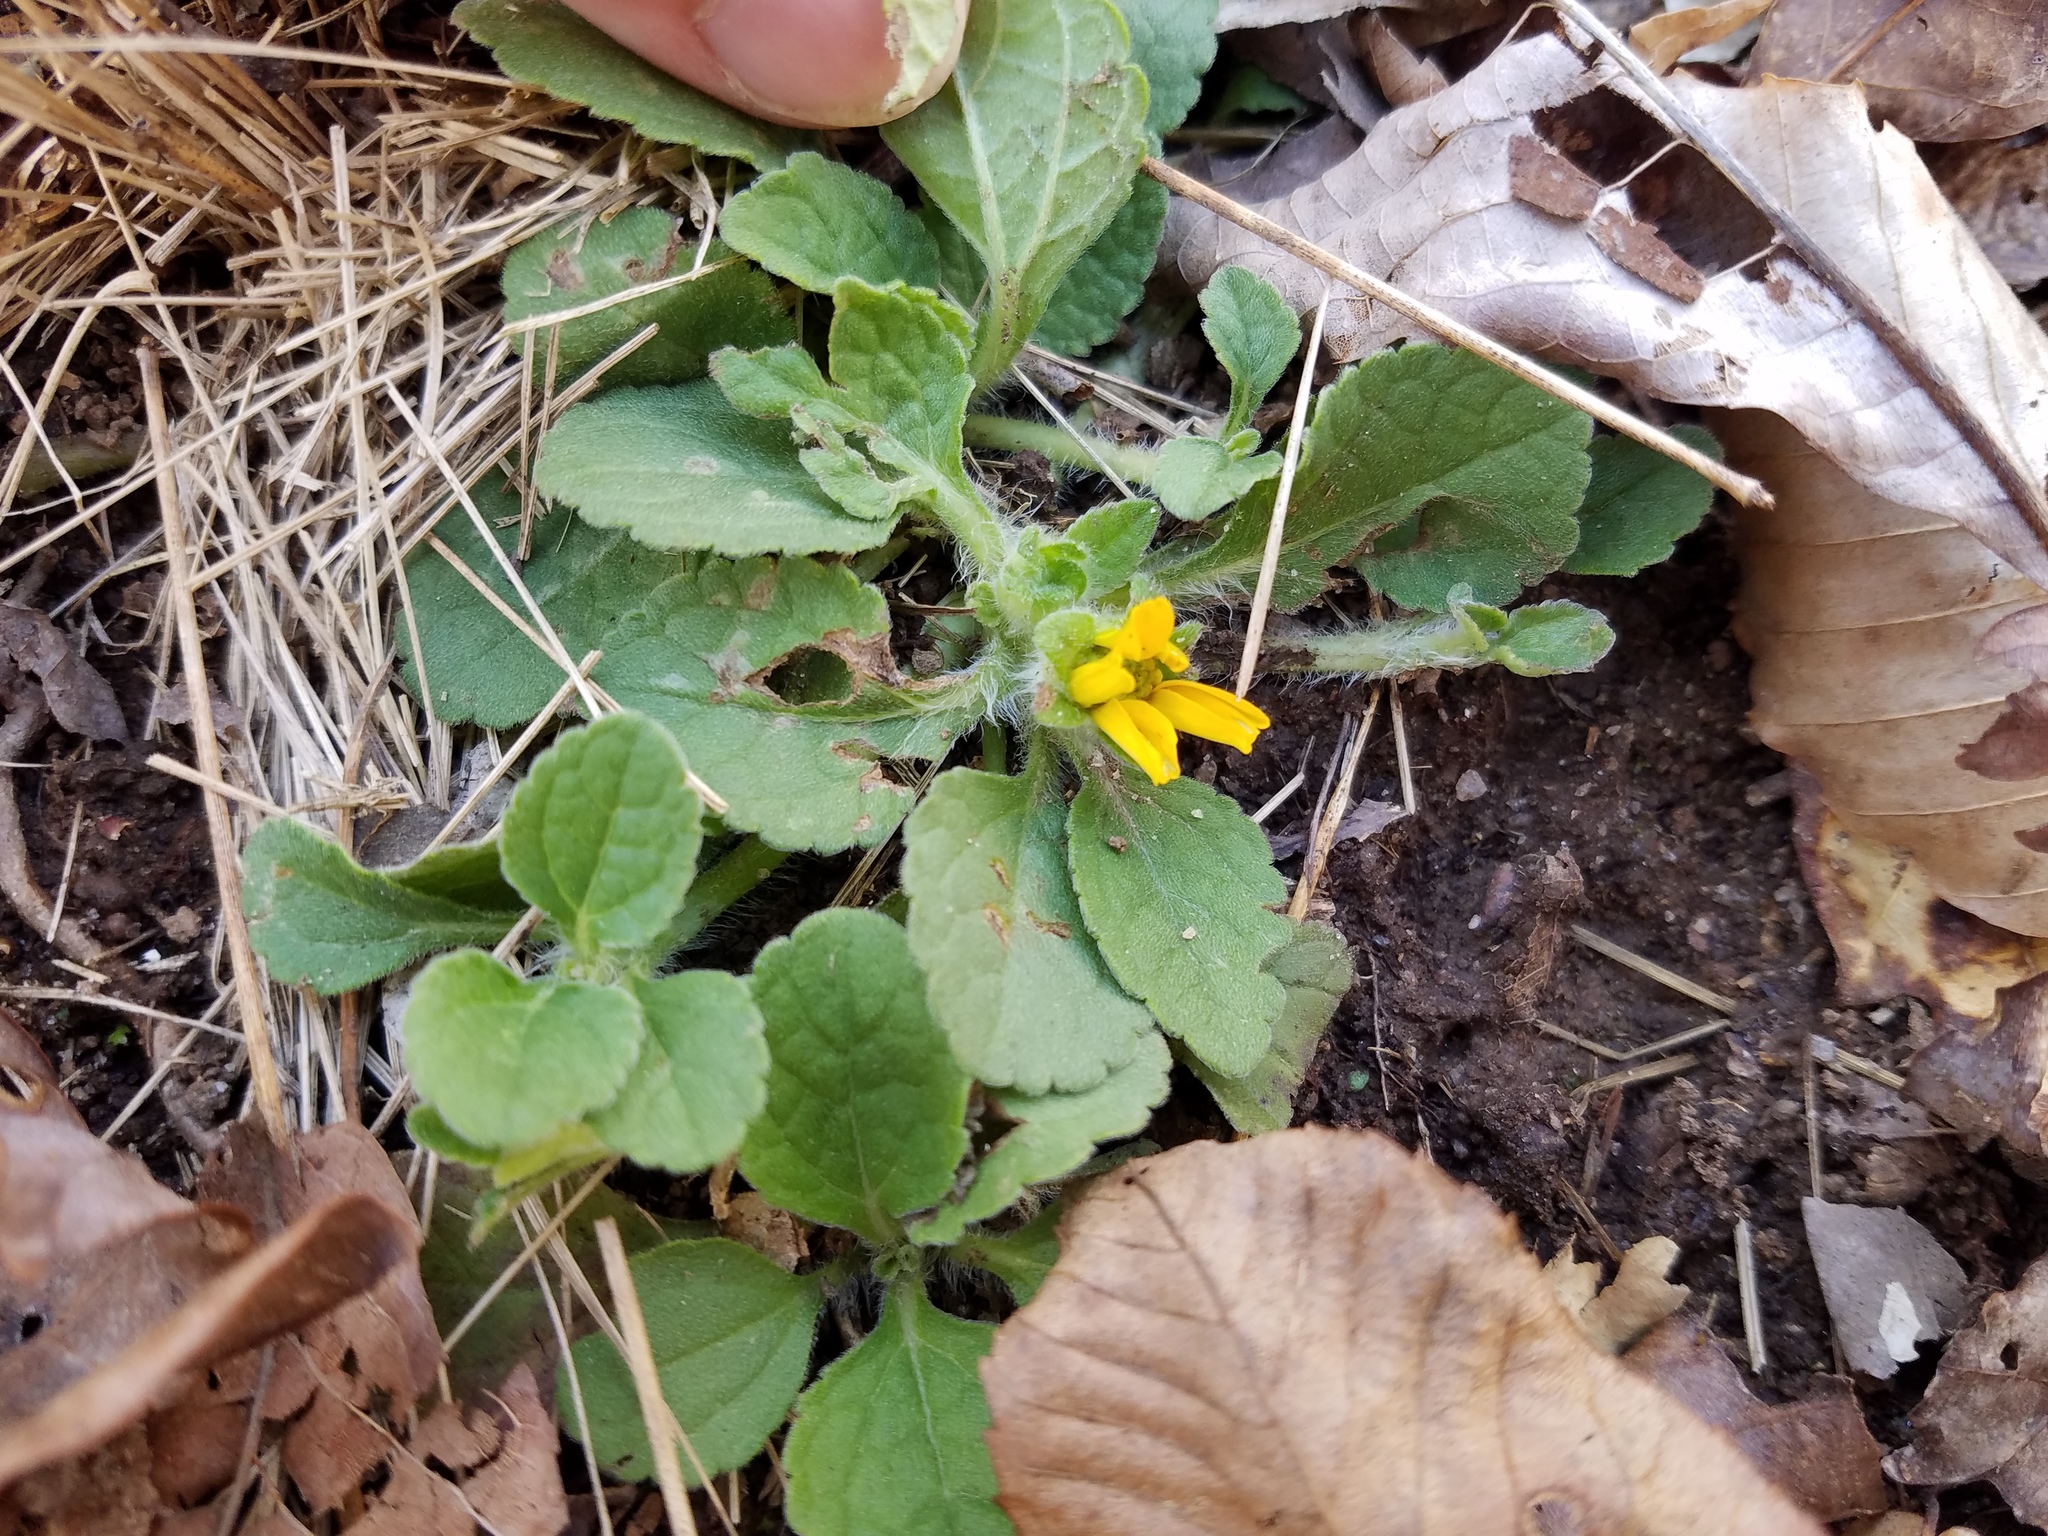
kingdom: Plantae
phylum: Tracheophyta
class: Magnoliopsida
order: Asterales
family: Asteraceae
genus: Chrysogonum
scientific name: Chrysogonum virginianum
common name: Golden-knee
